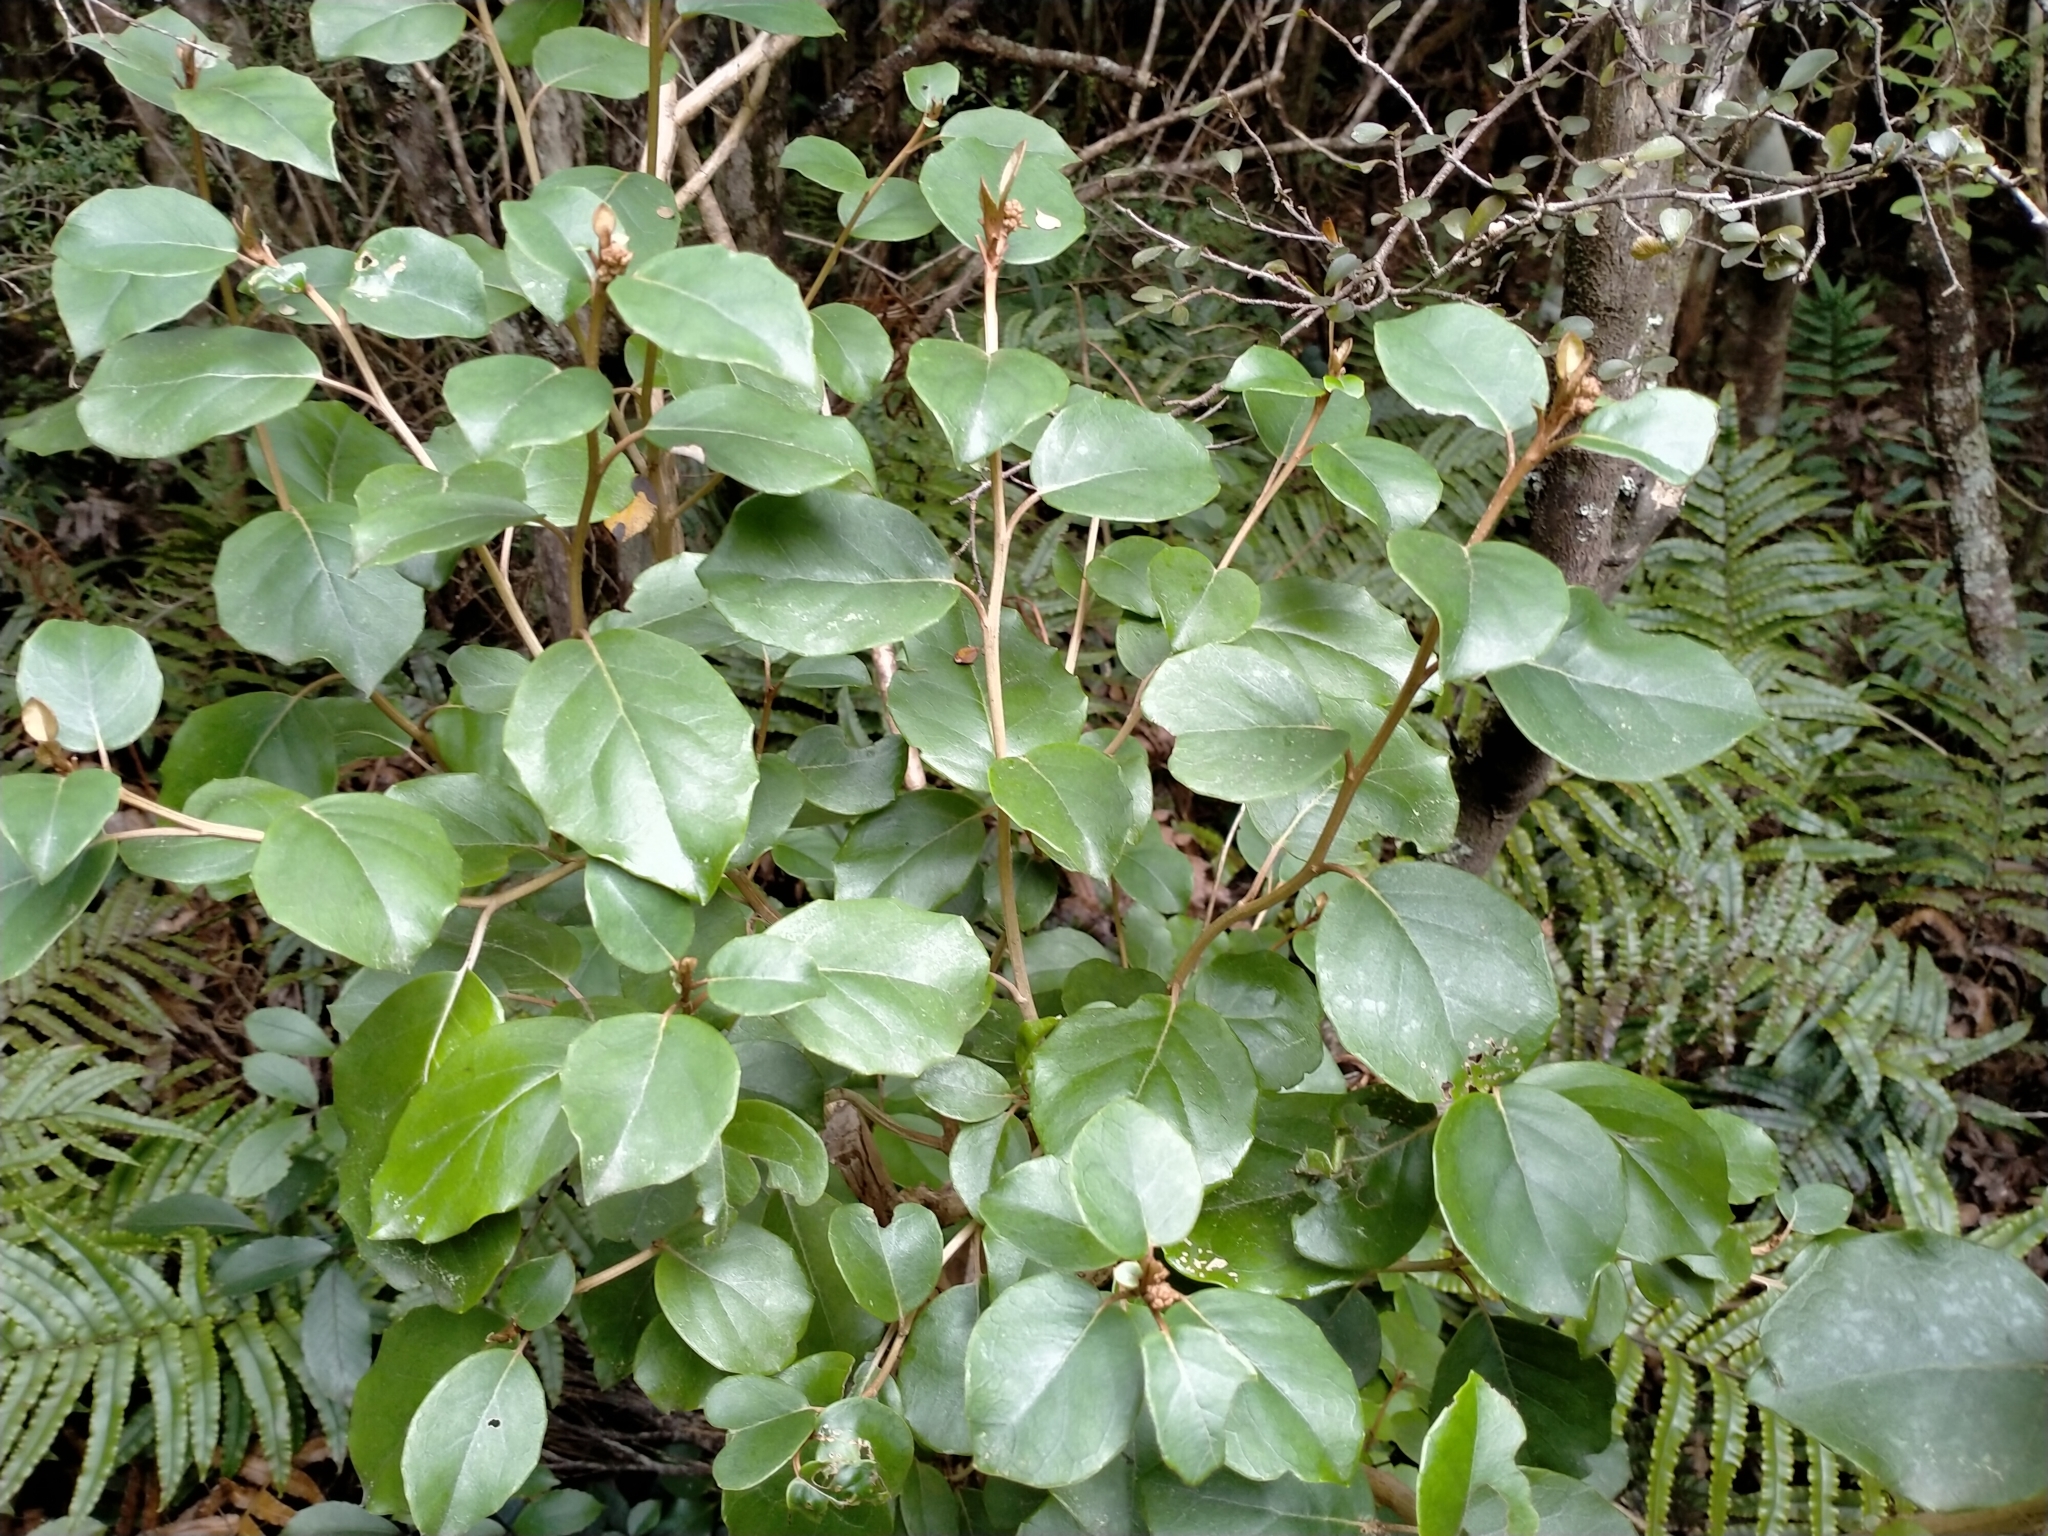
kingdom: Plantae
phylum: Tracheophyta
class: Magnoliopsida
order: Asterales
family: Asteraceae
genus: Olearia
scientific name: Olearia arborescens
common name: Glossy tree daisy
